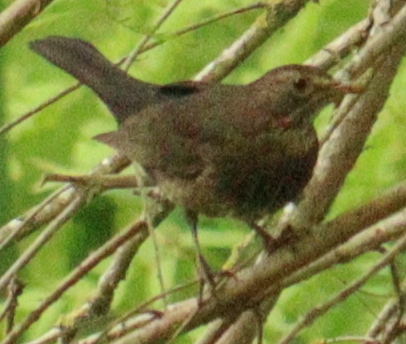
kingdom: Animalia
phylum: Chordata
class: Aves
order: Passeriformes
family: Turdidae
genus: Turdus
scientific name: Turdus merula
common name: Common blackbird
